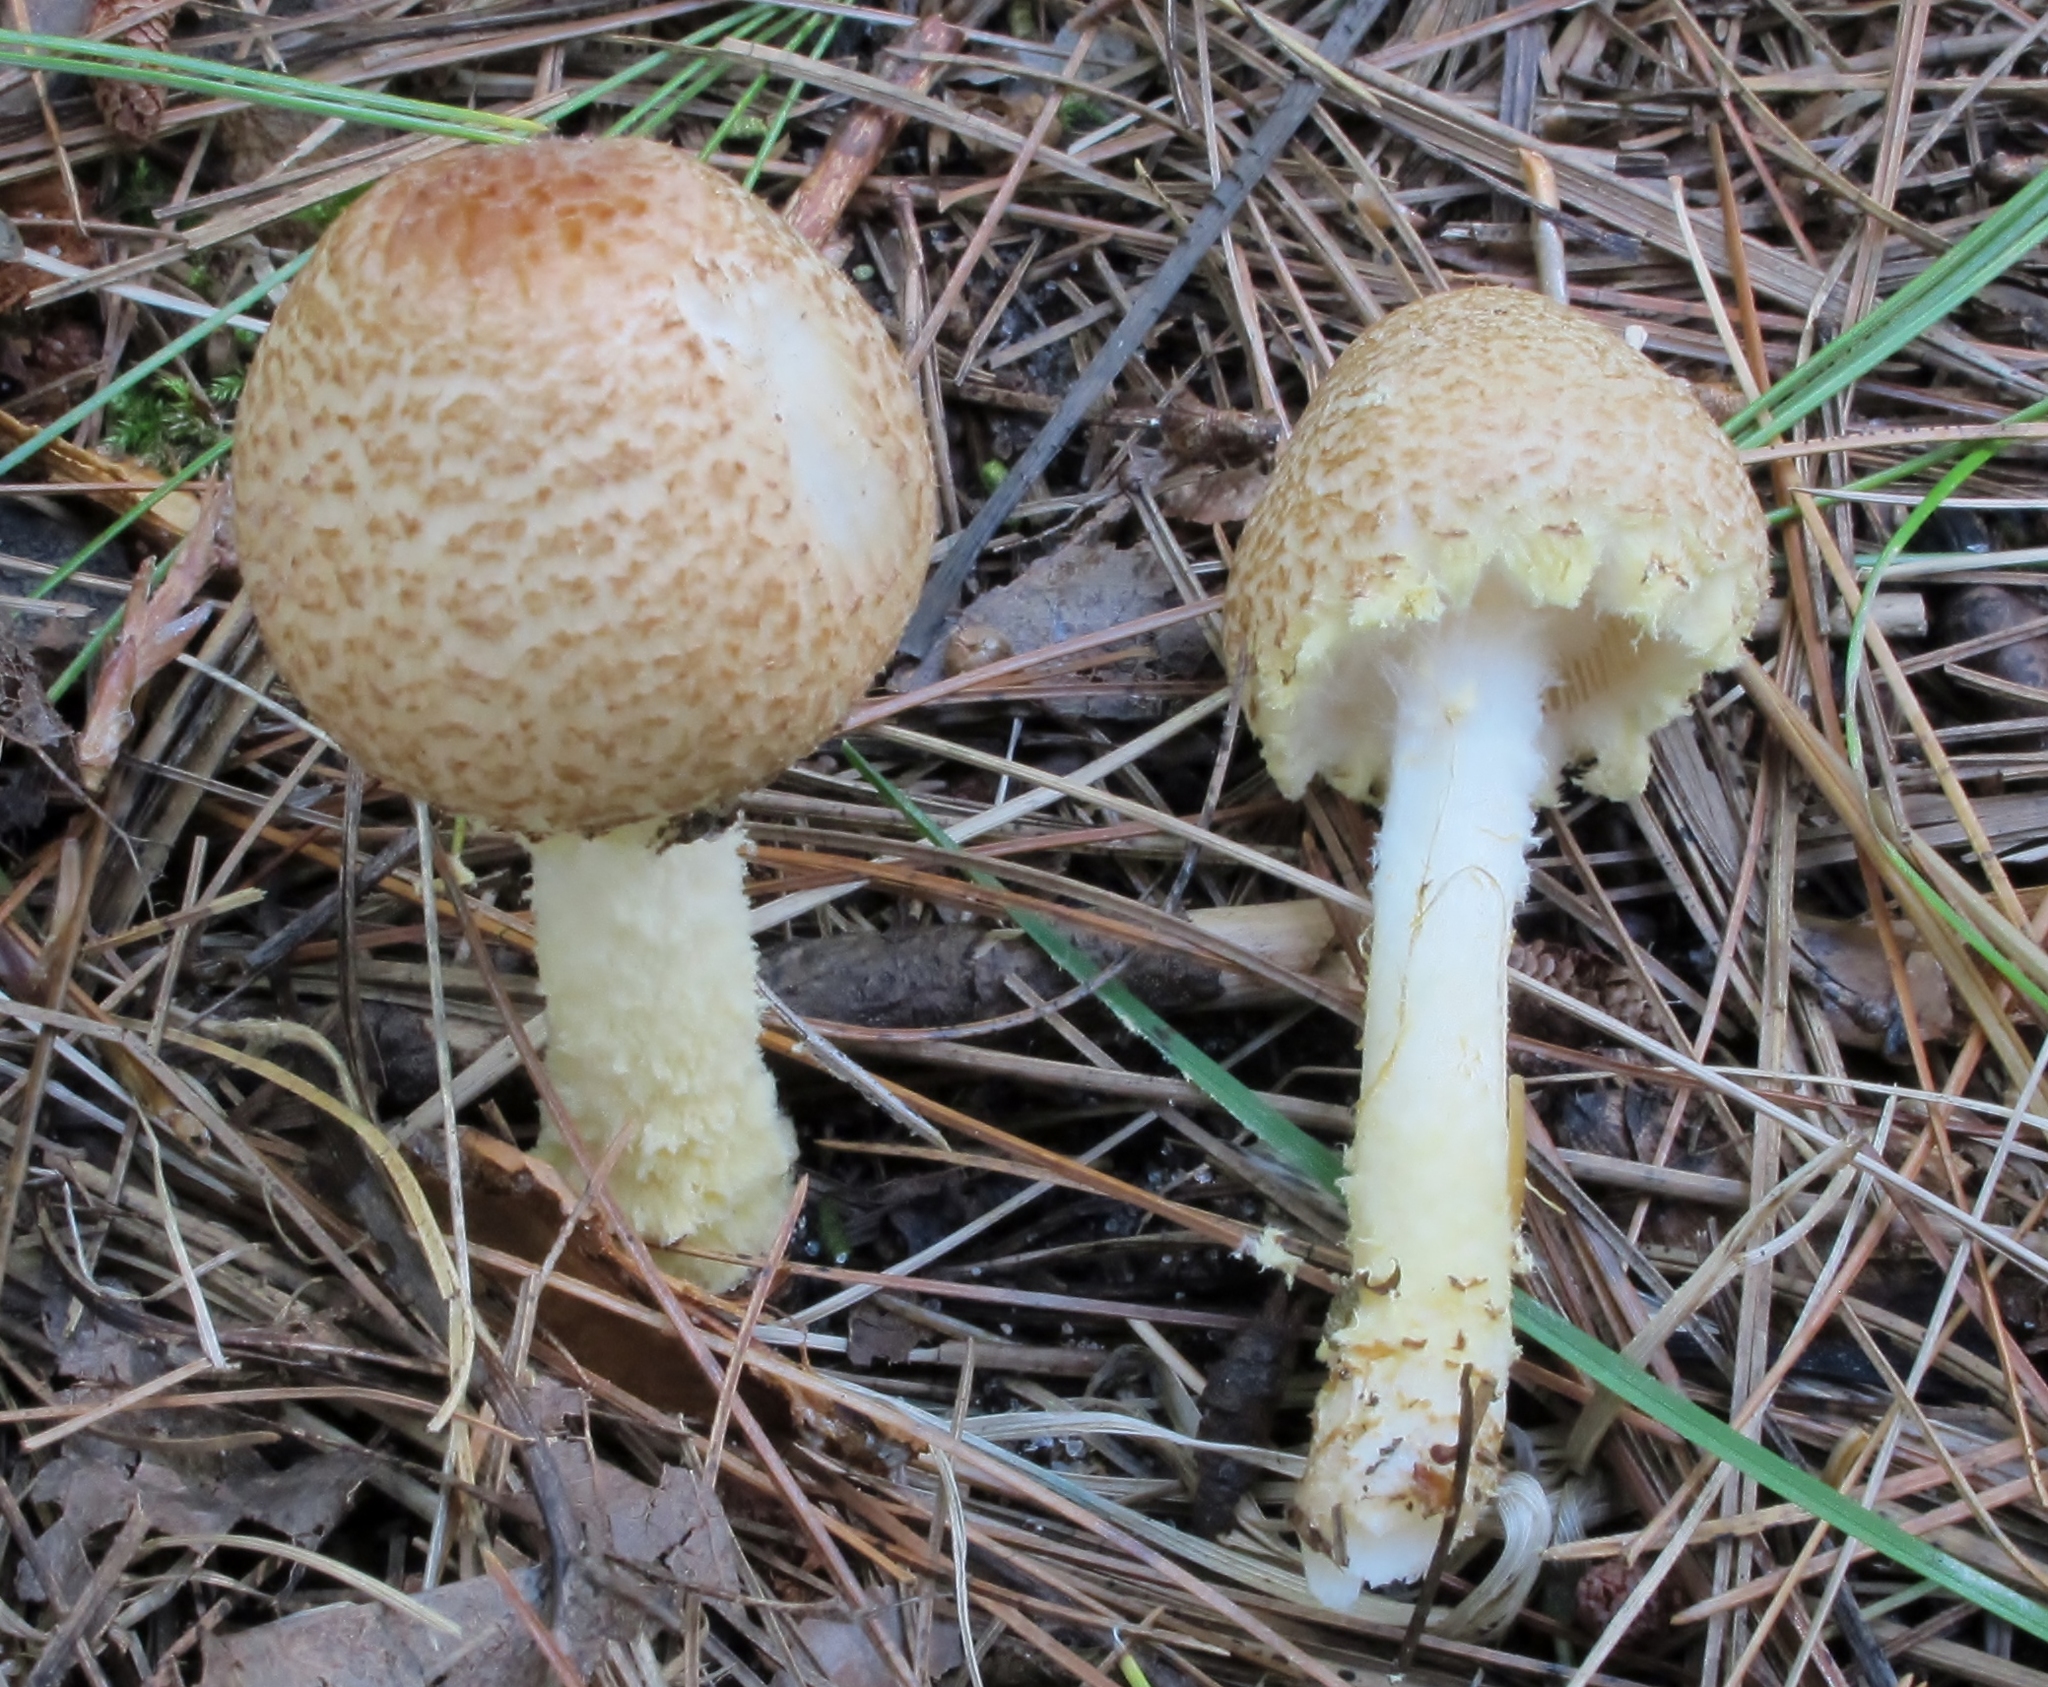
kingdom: Fungi
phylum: Basidiomycota
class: Agaricomycetes
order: Agaricales
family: Agaricaceae
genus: Lepiota
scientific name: Lepiota clypeolaria
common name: Shield dapperling
